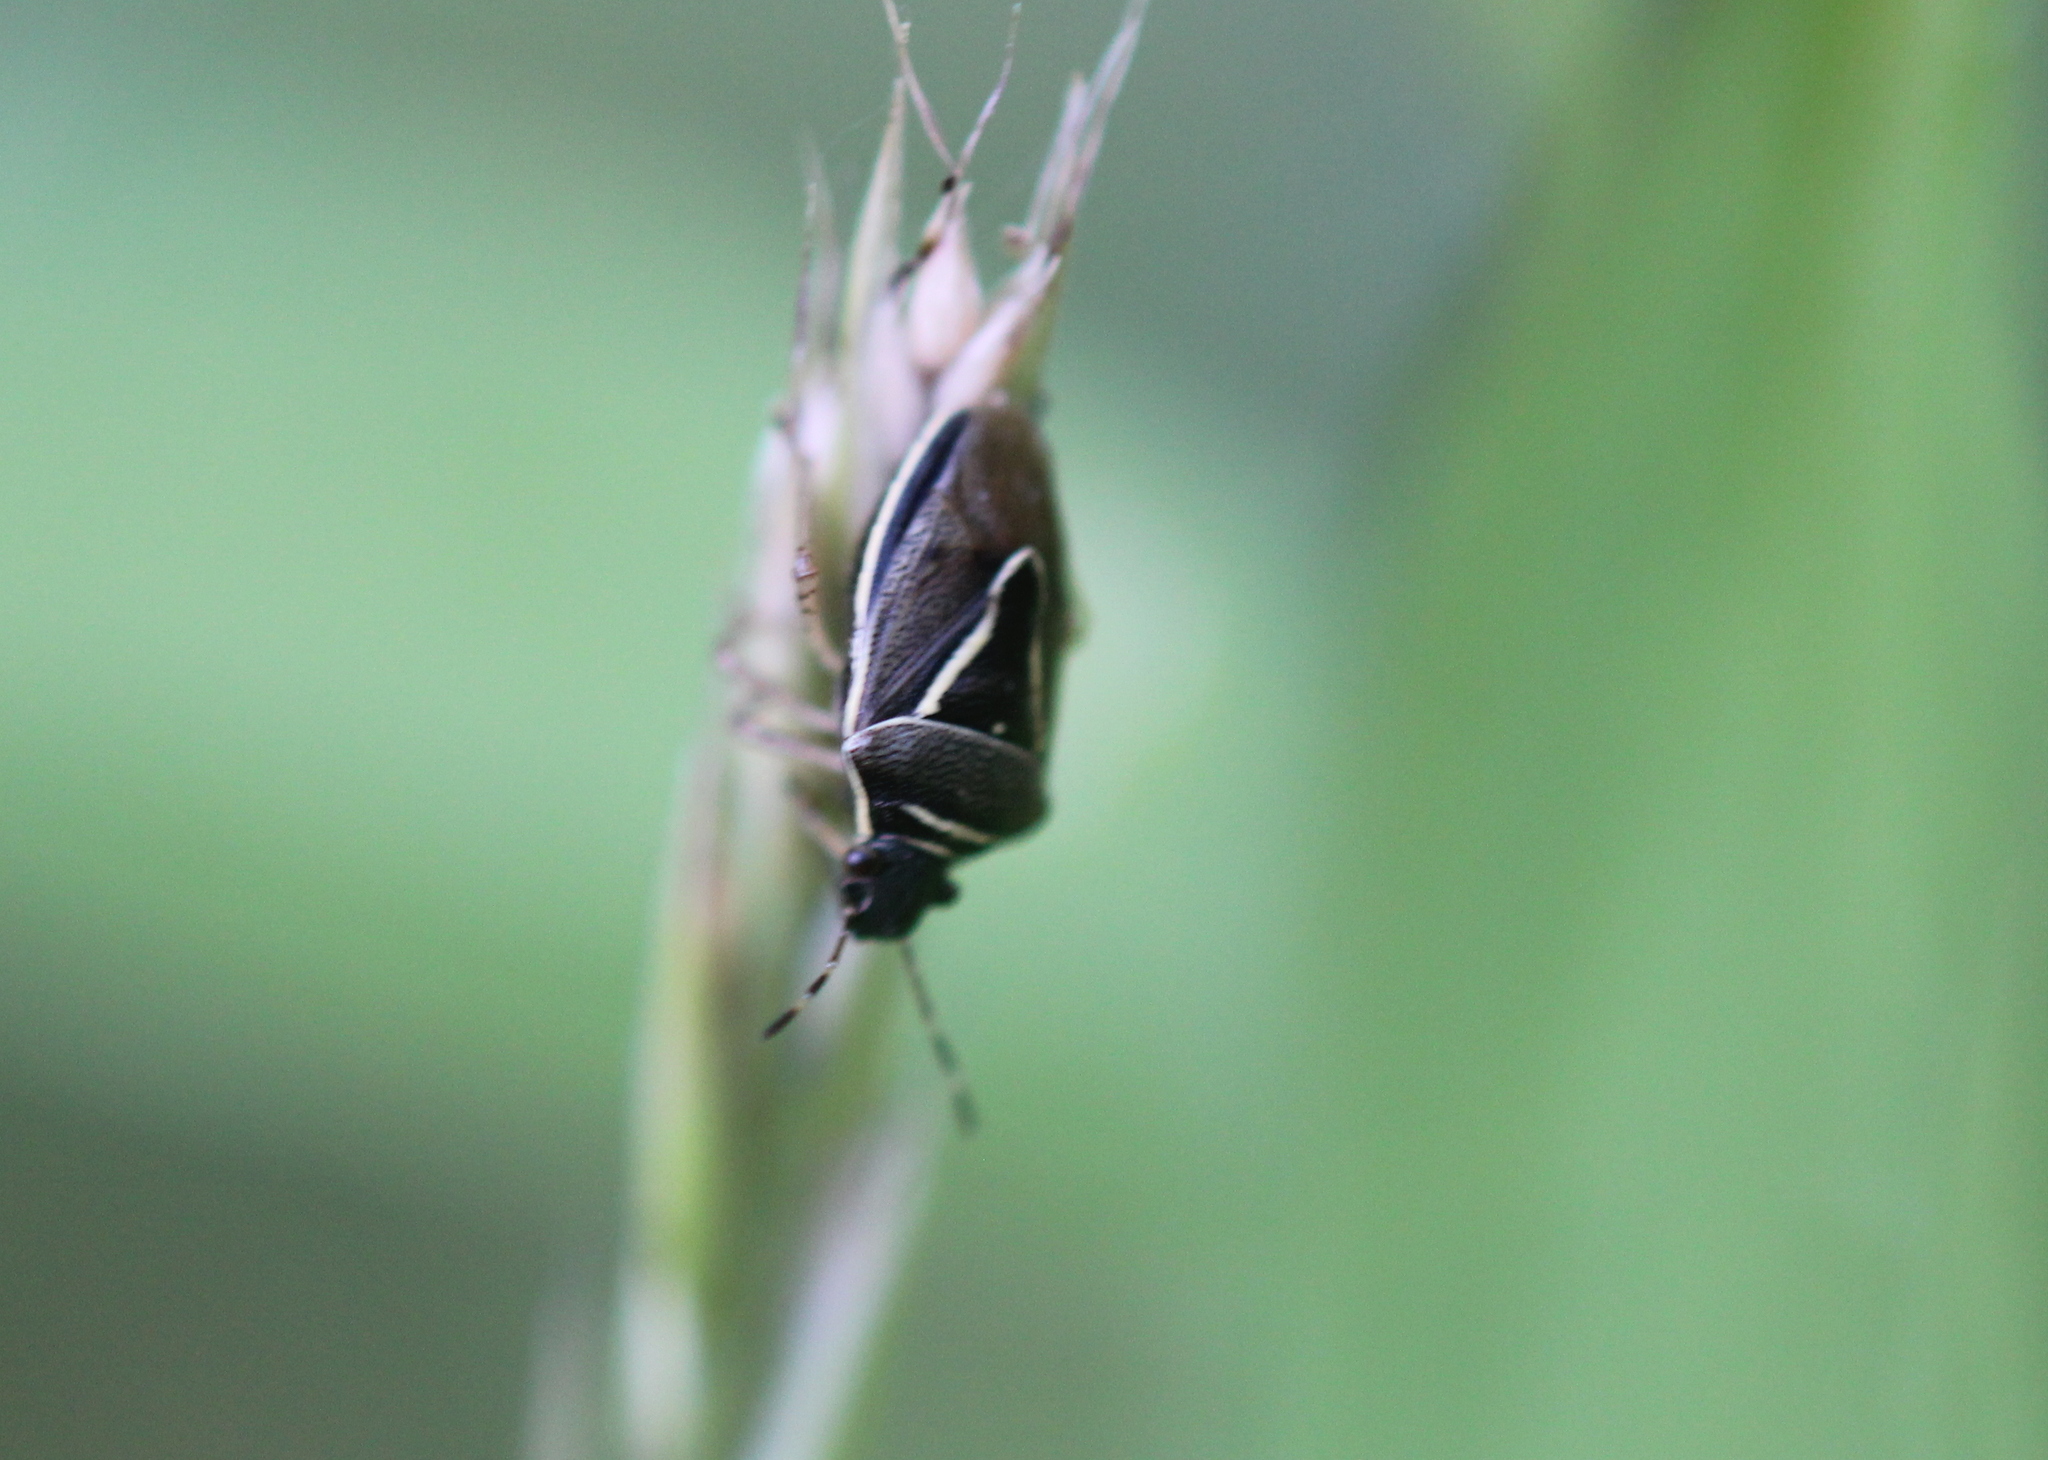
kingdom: Animalia
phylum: Arthropoda
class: Insecta
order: Hemiptera
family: Pentatomidae
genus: Mormidea
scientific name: Mormidea lugens
